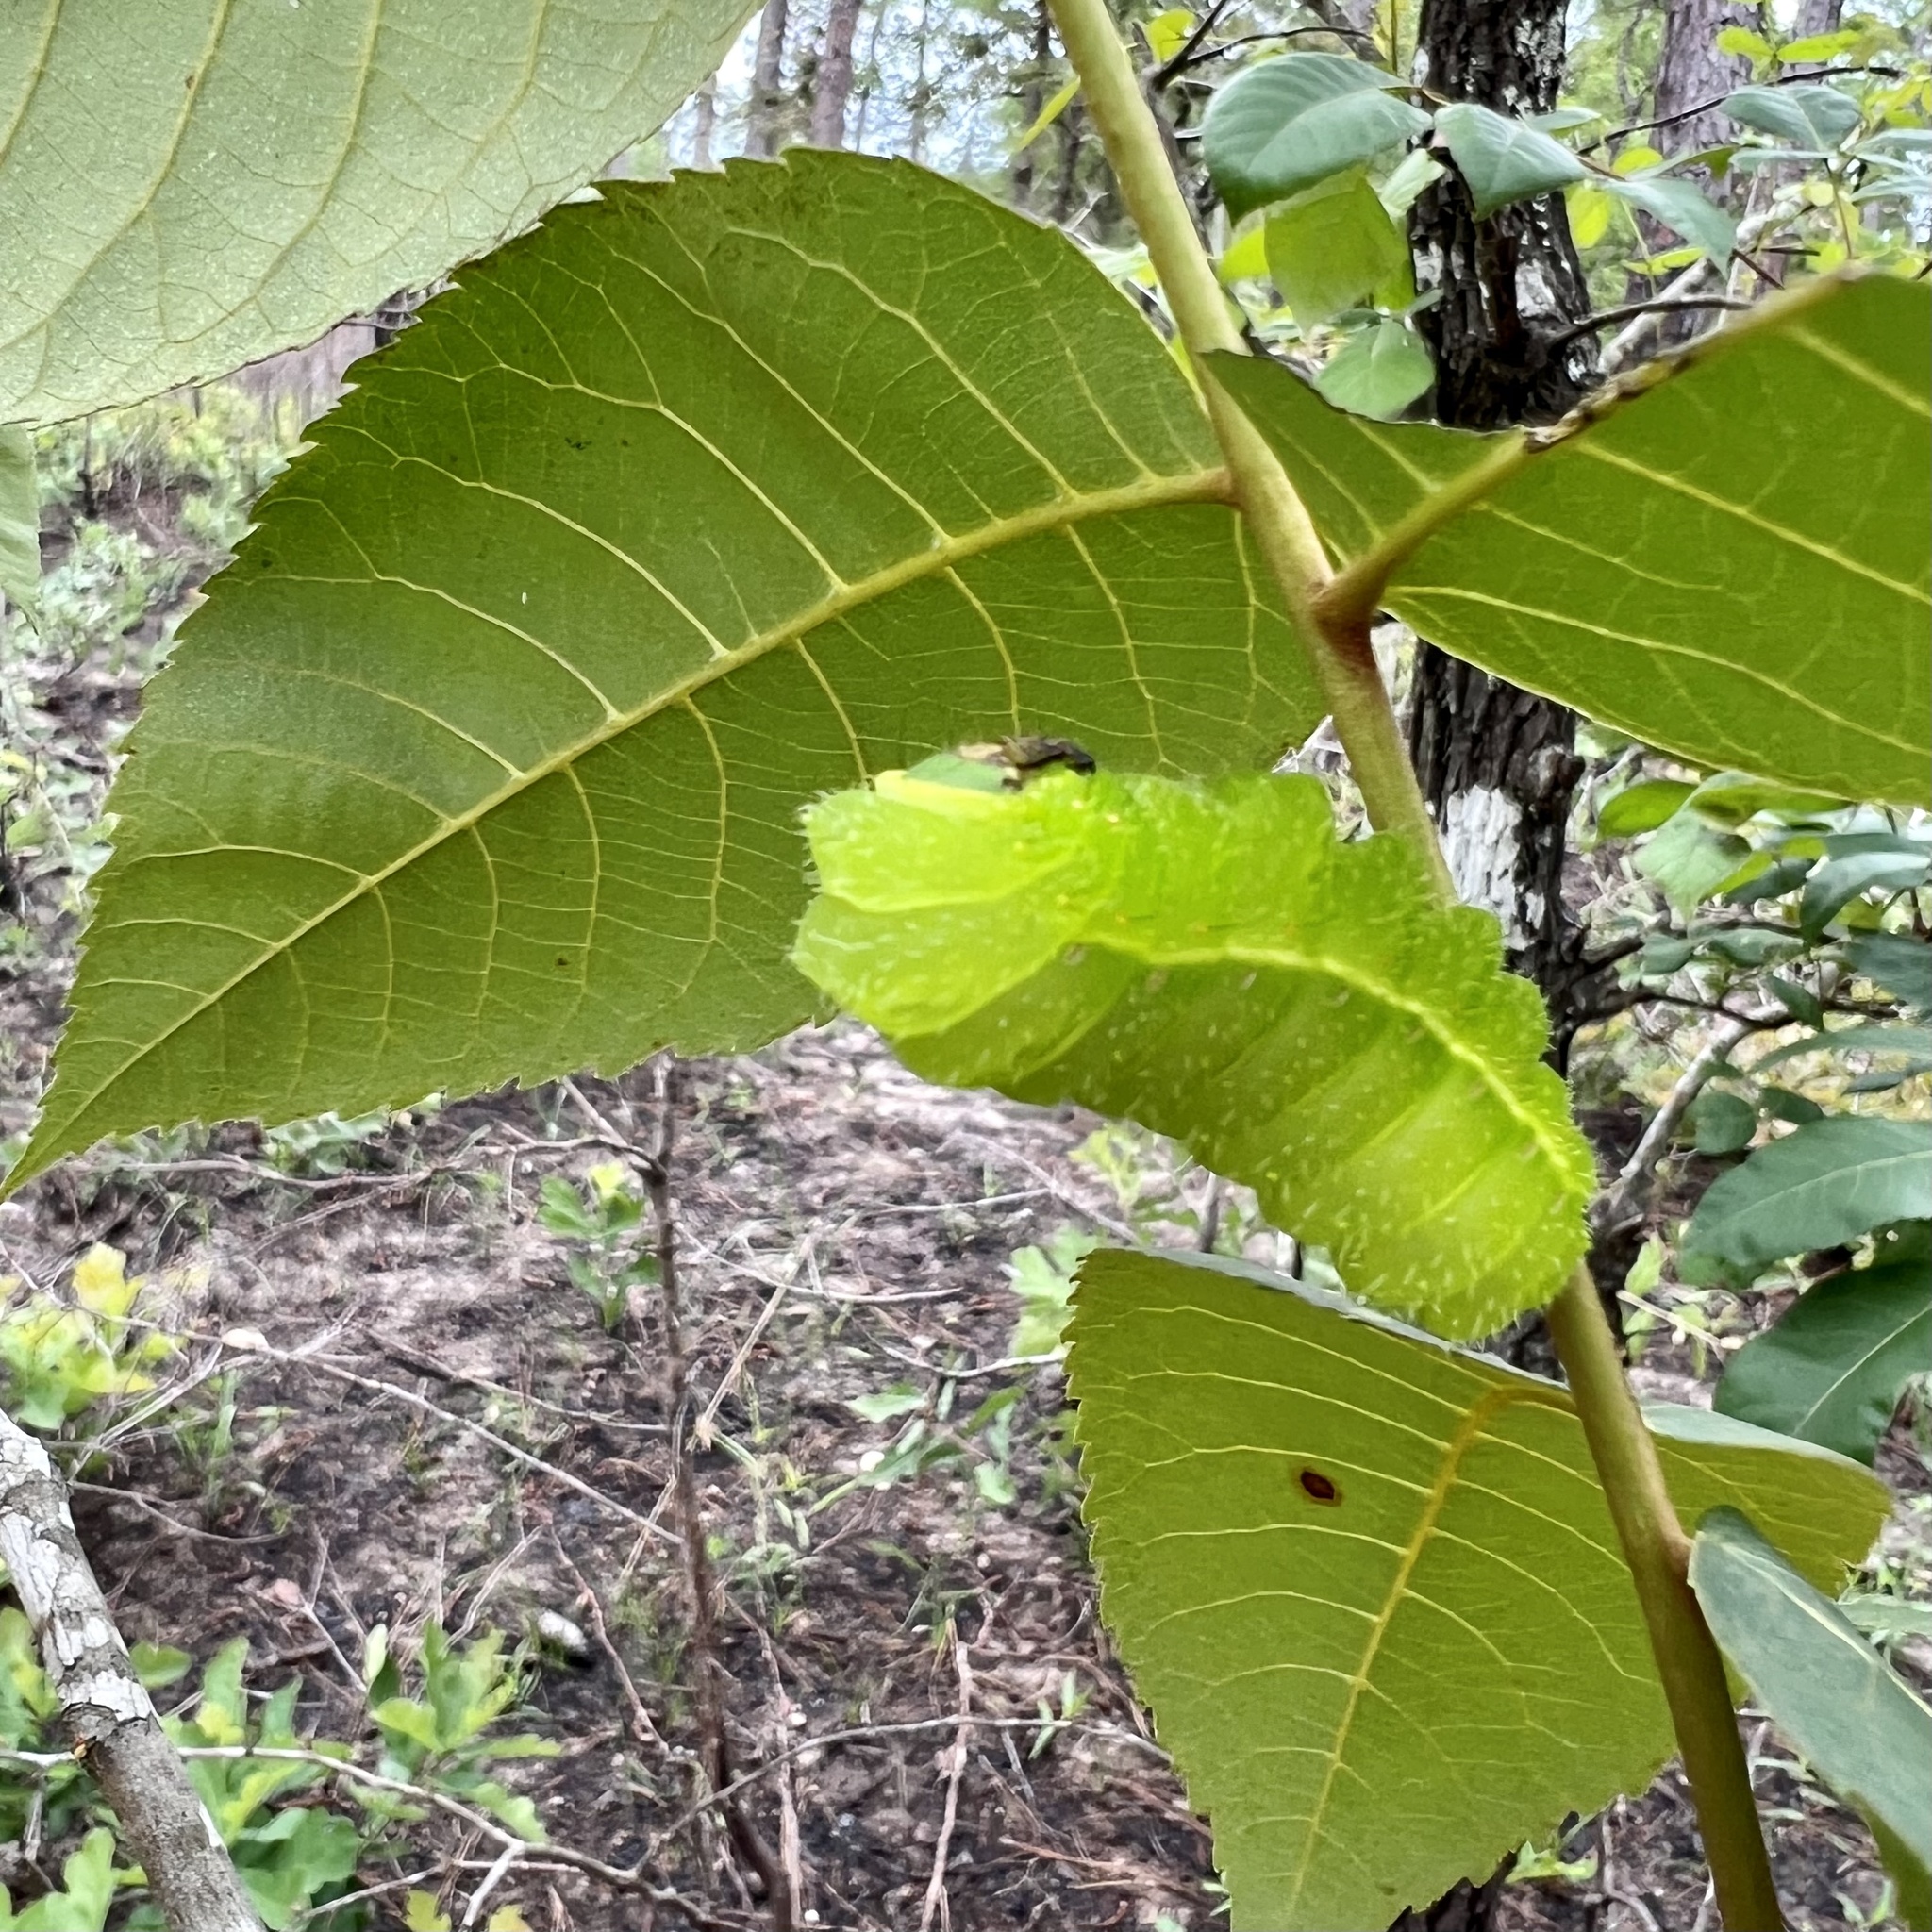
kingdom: Animalia
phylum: Arthropoda
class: Insecta
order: Lepidoptera
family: Saturniidae
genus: Actias
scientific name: Actias luna
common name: Luna moth
